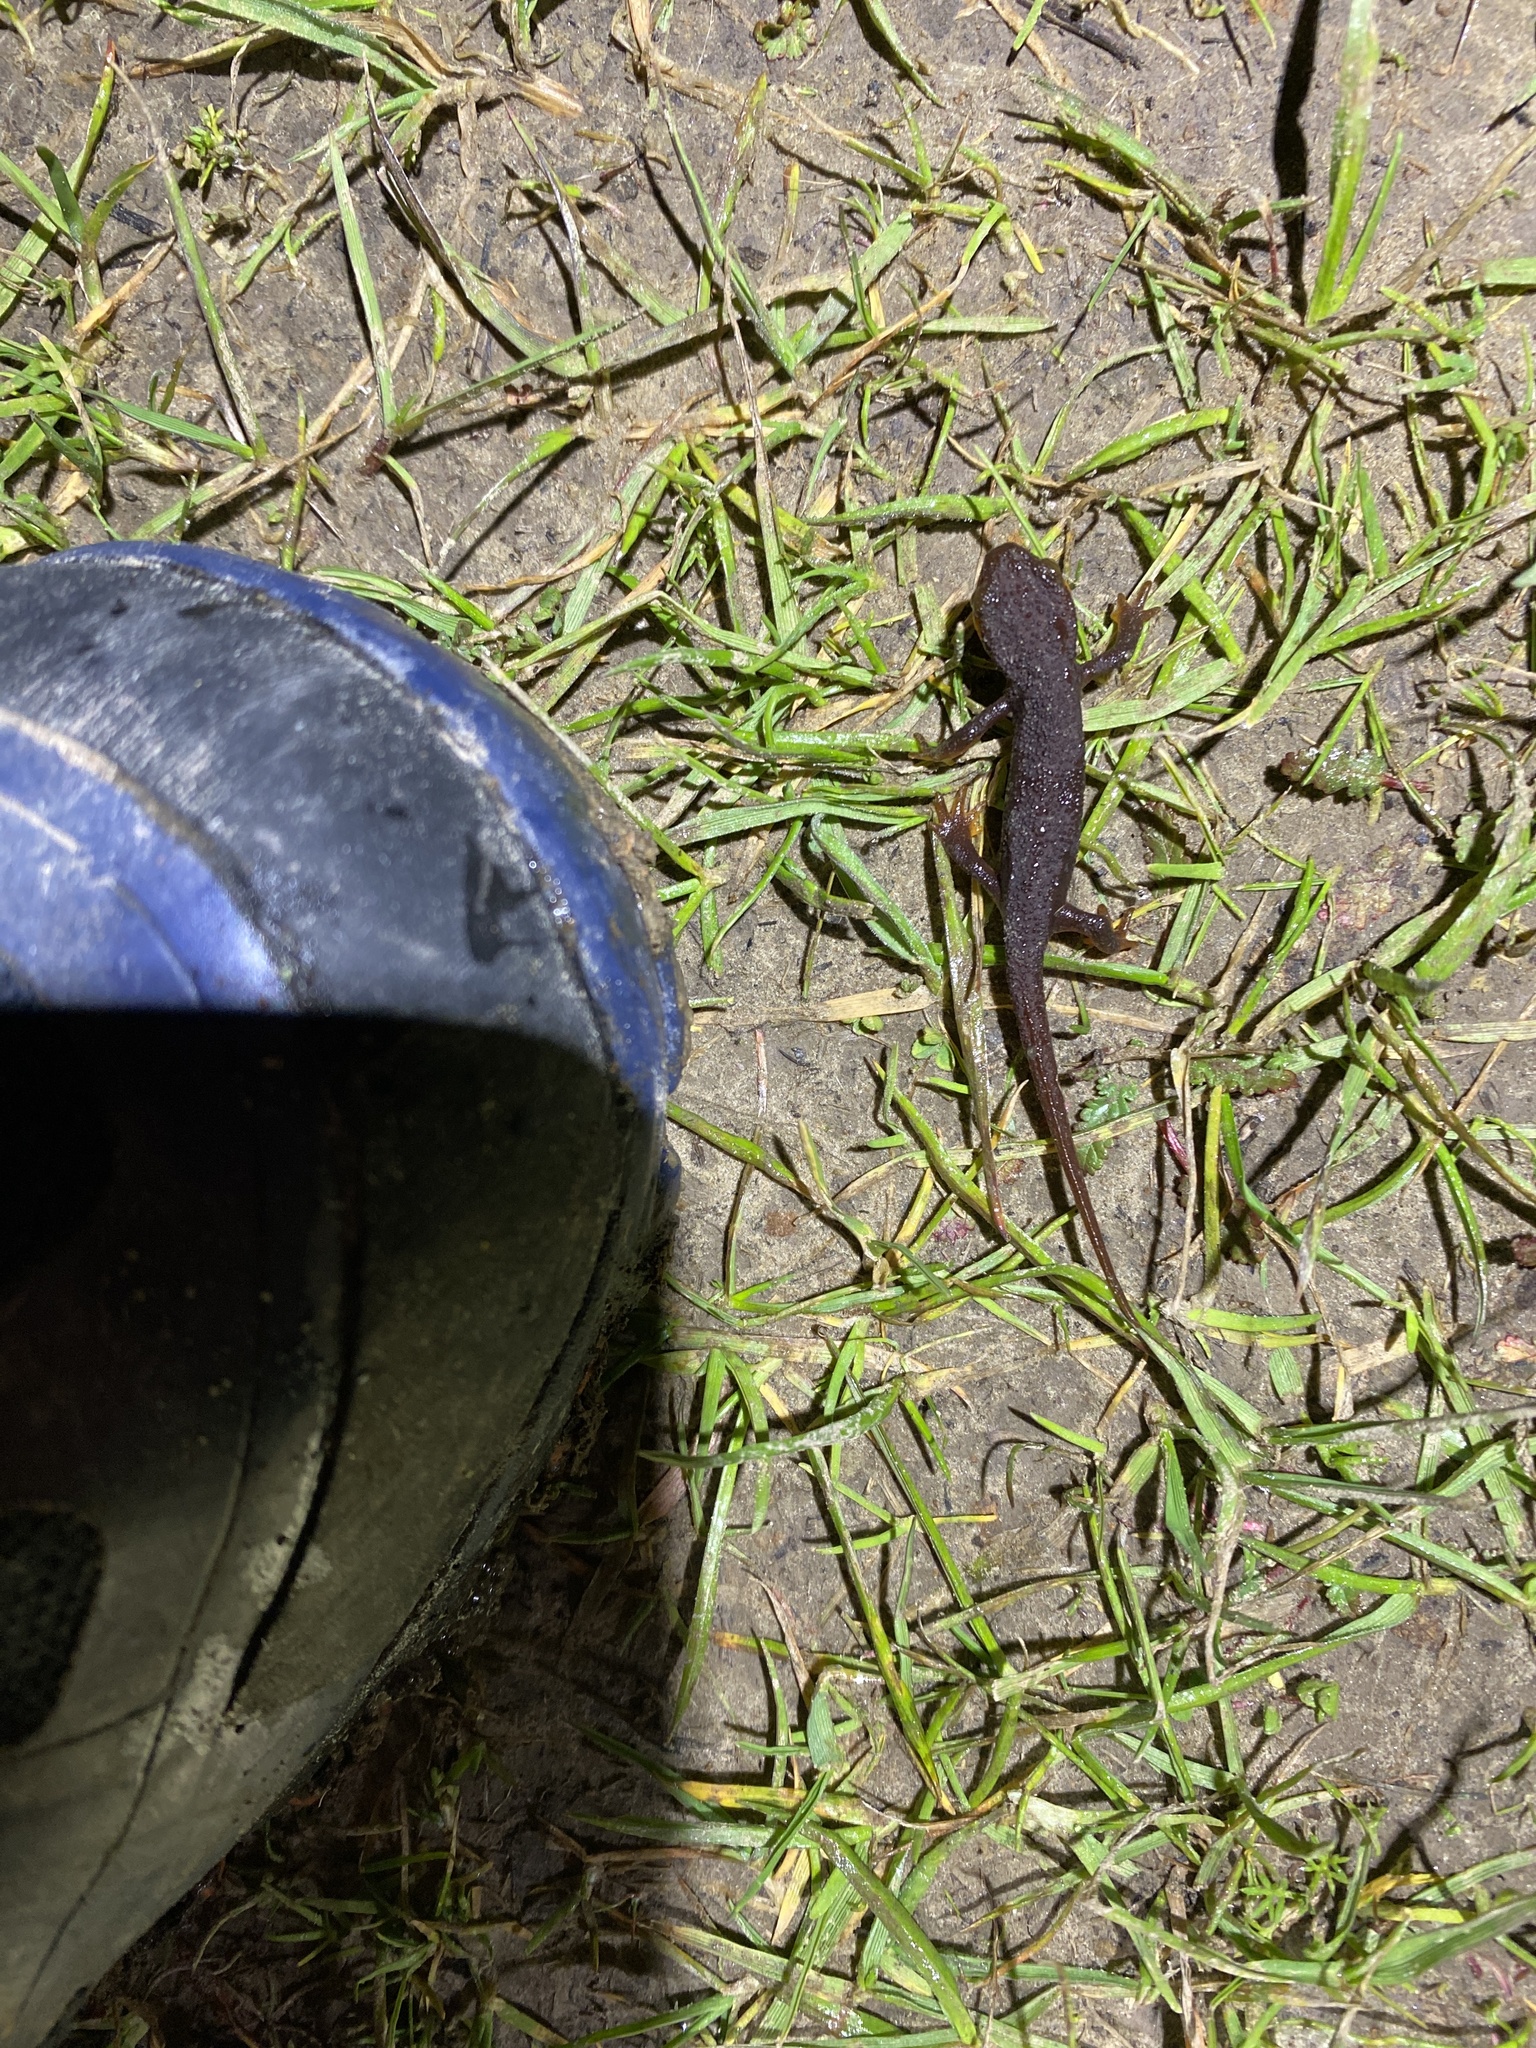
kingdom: Animalia
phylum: Chordata
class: Amphibia
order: Caudata
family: Salamandridae
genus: Taricha
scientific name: Taricha torosa
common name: California newt
